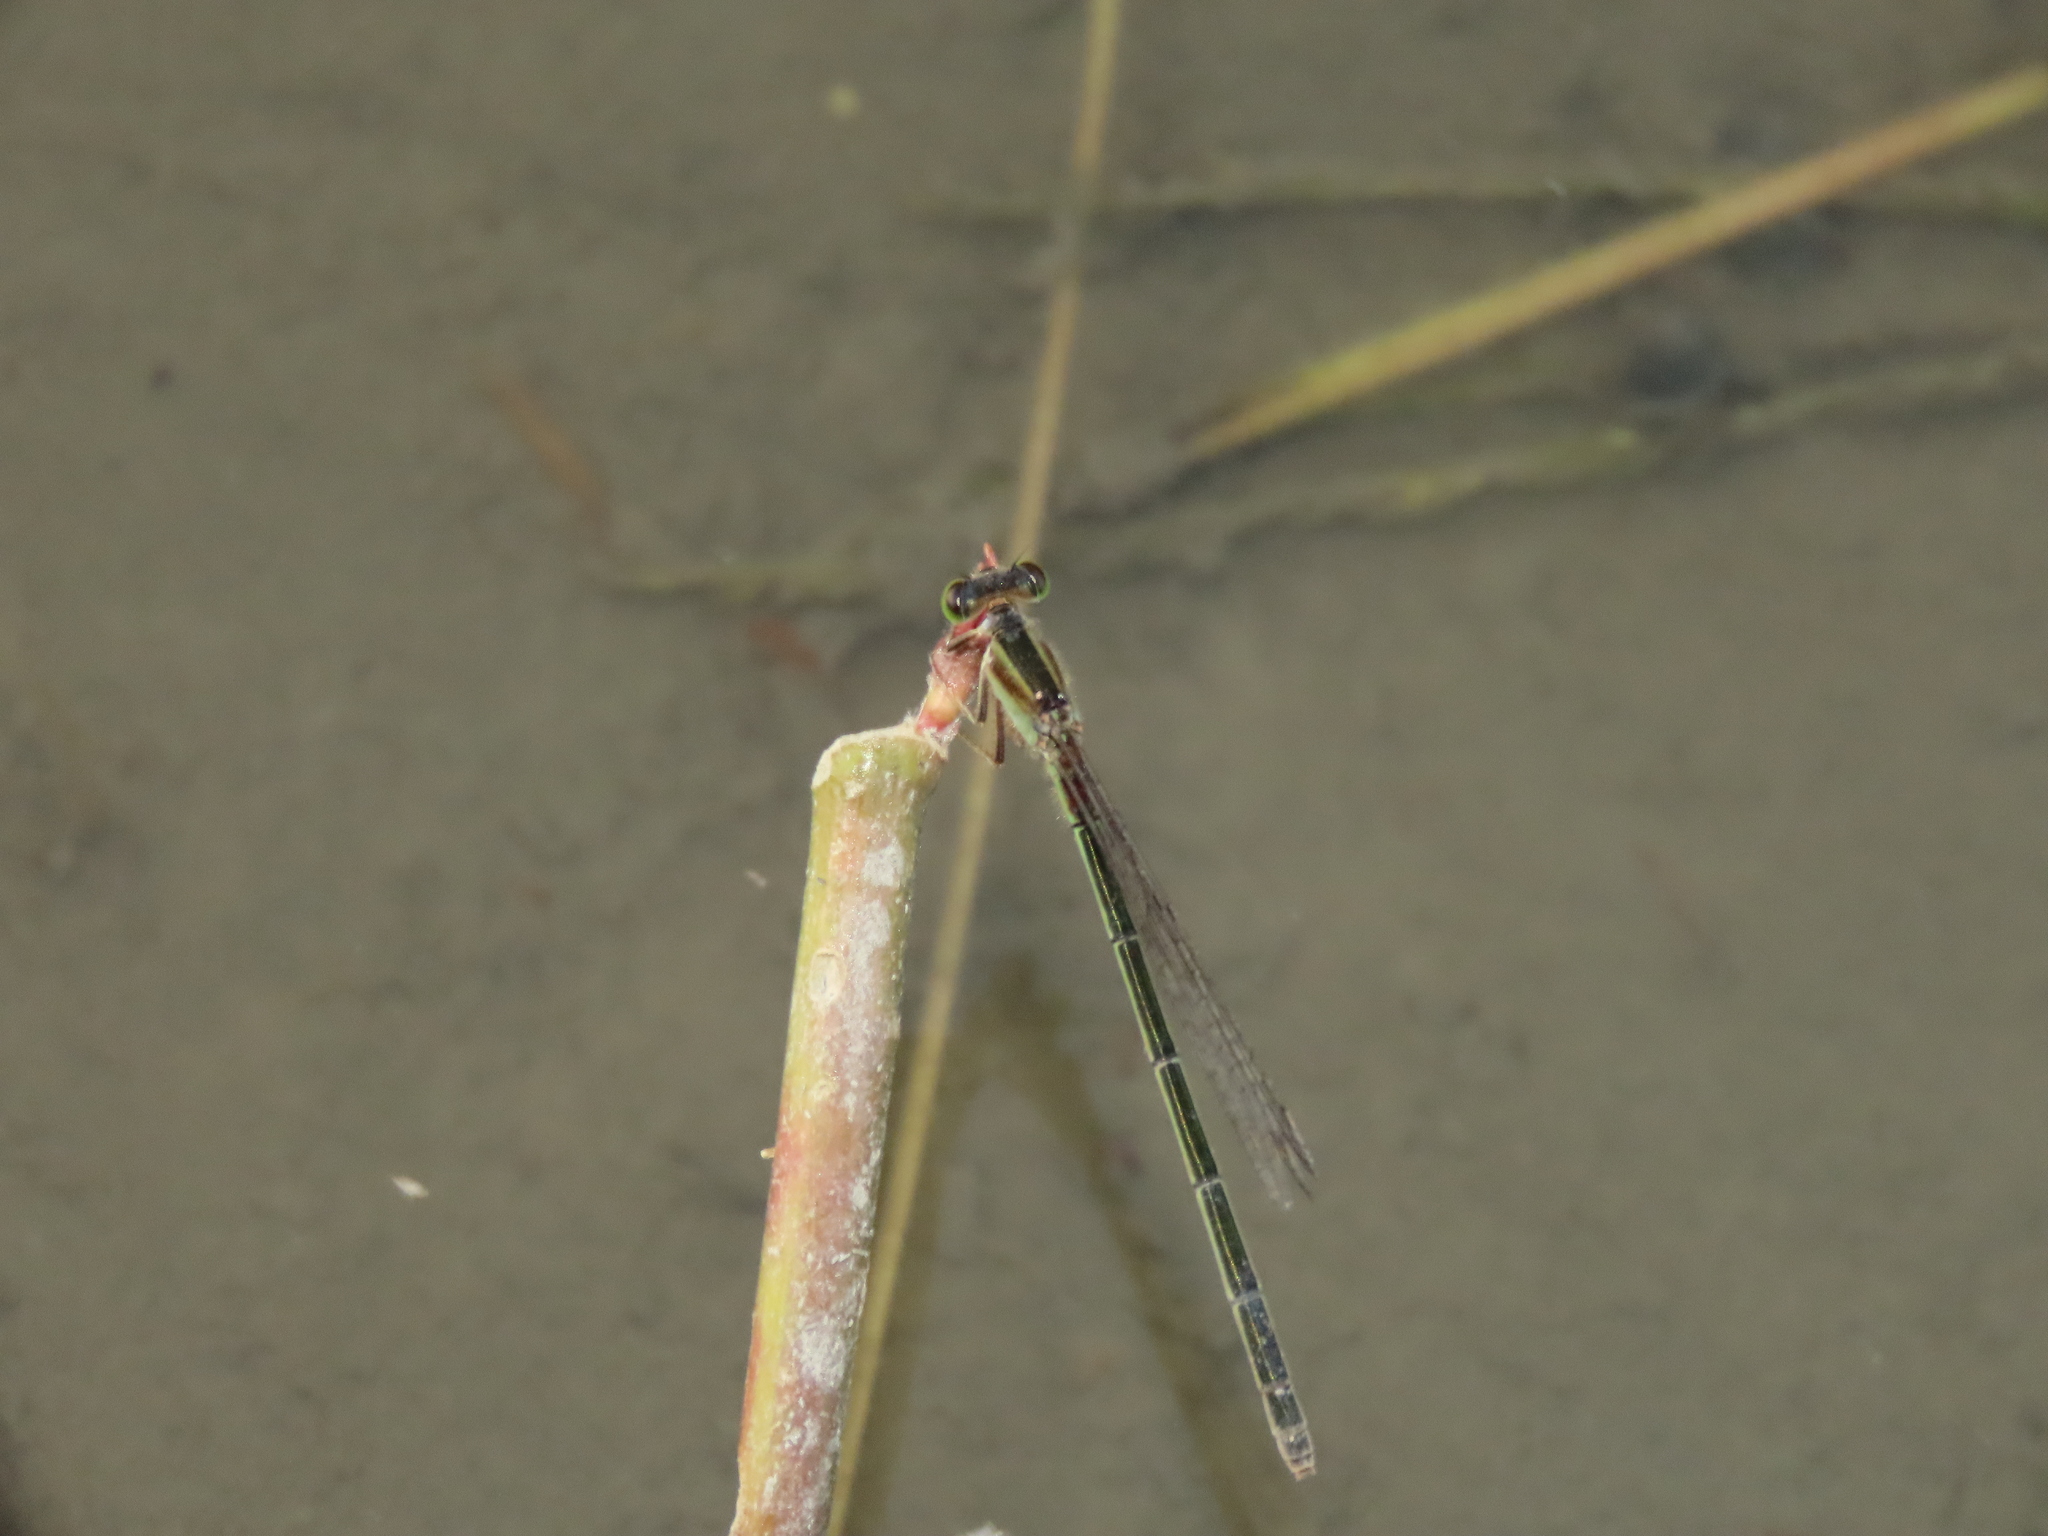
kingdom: Animalia
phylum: Arthropoda
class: Insecta
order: Odonata
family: Coenagrionidae
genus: Ischnura
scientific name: Ischnura senegalensis
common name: Tropical bluetail
